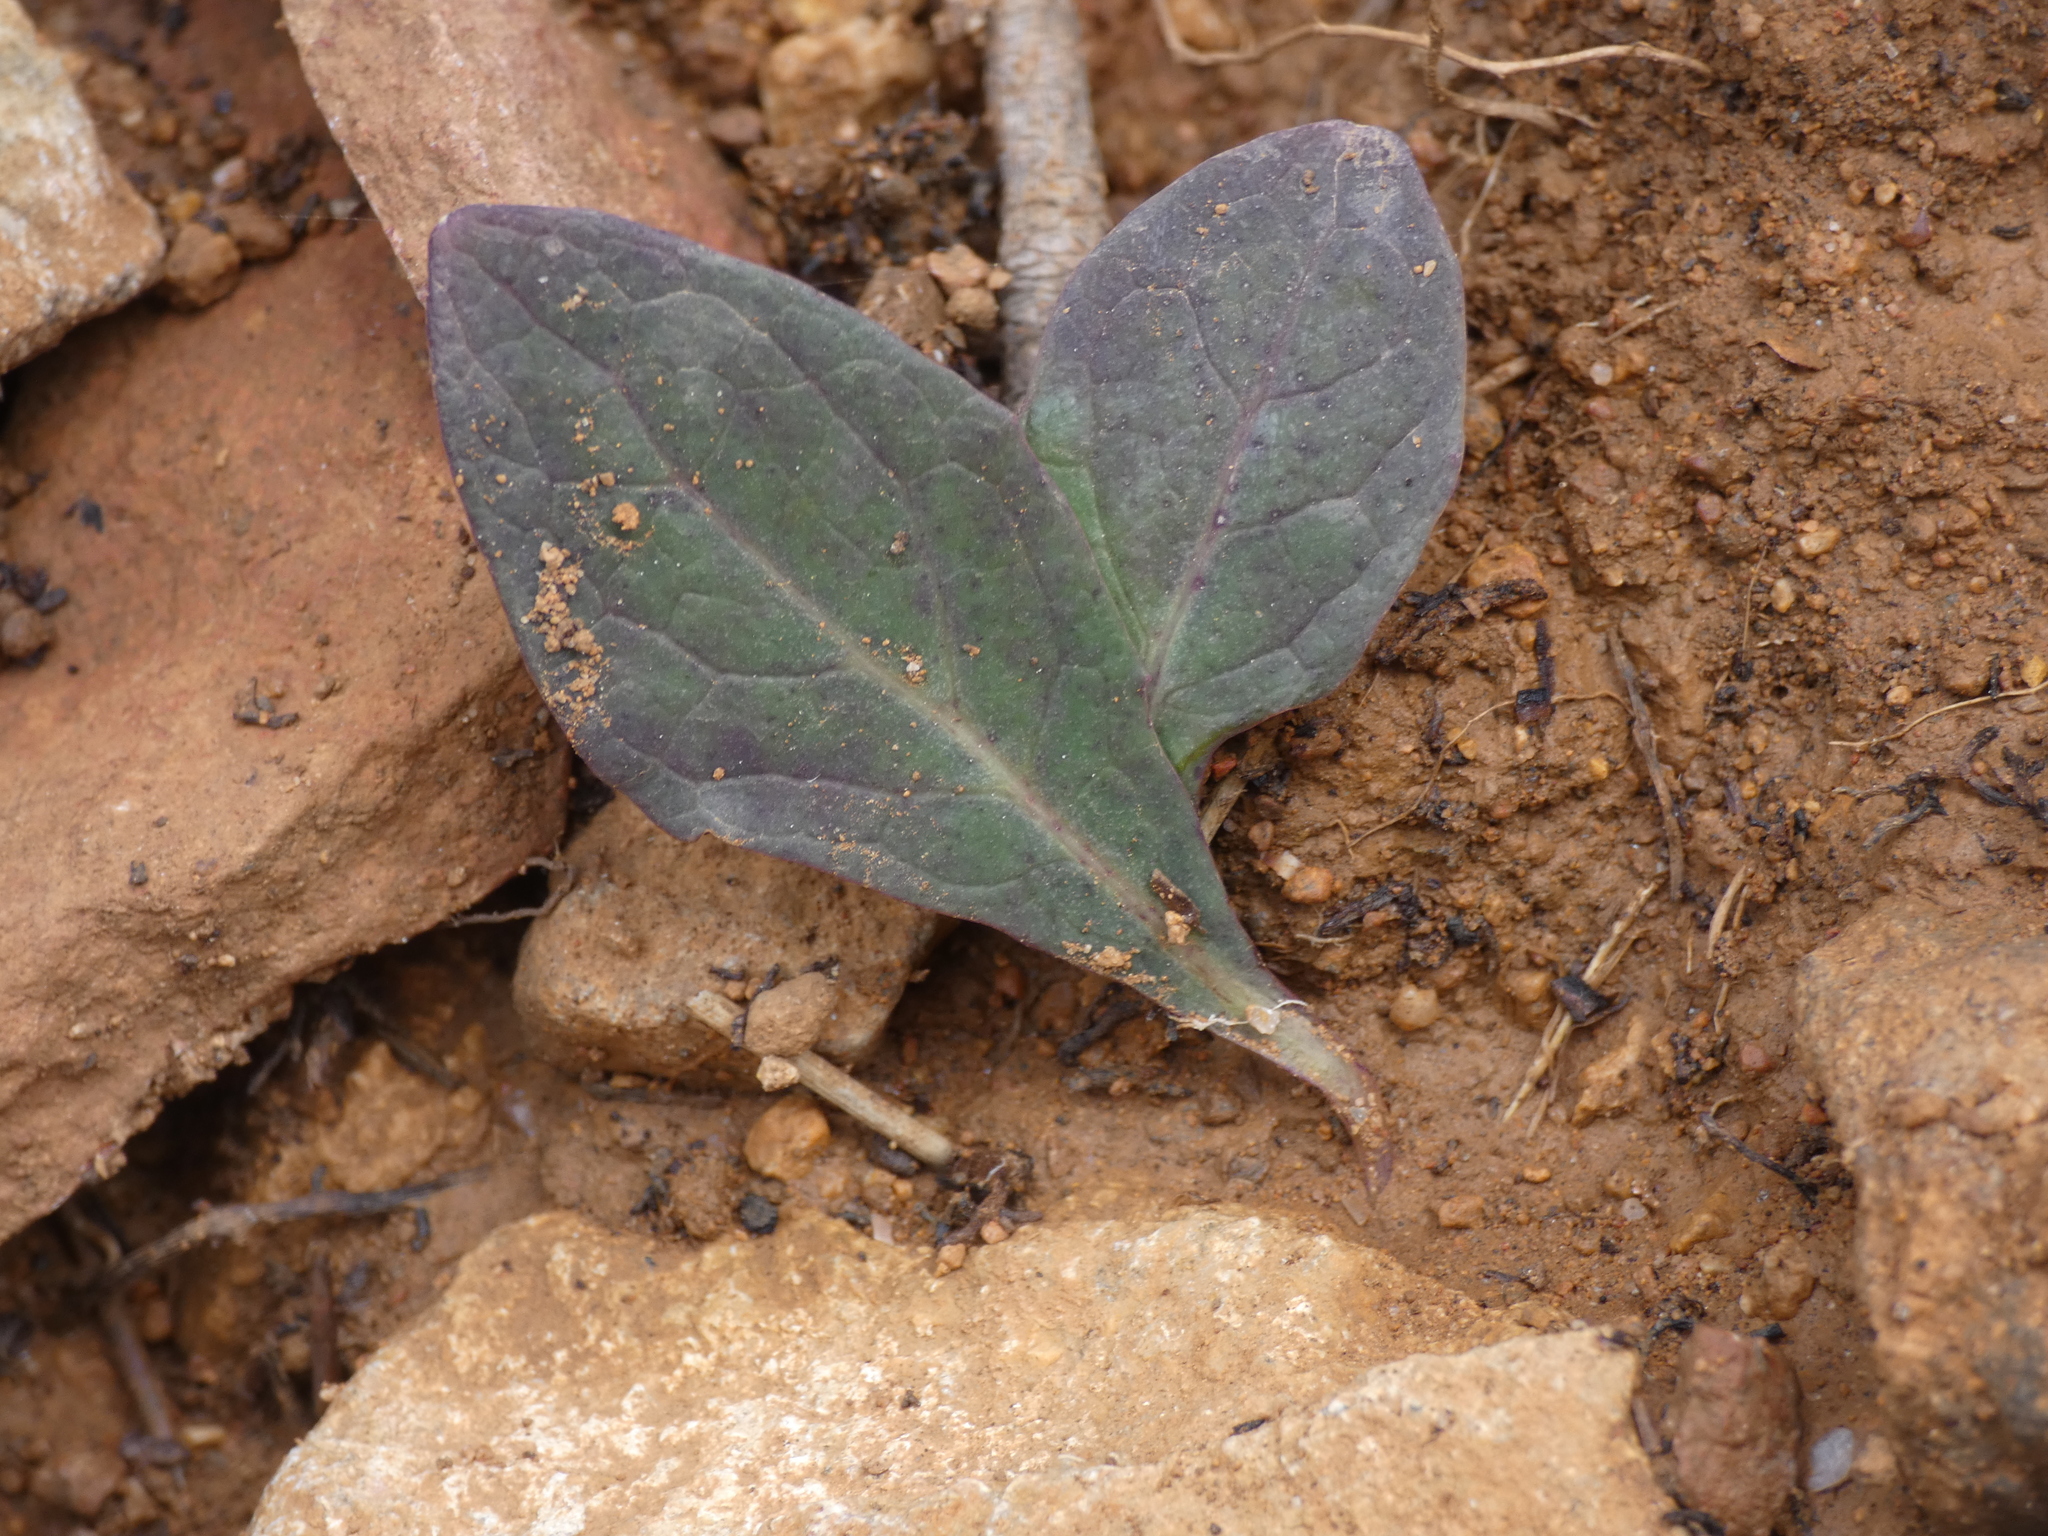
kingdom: Plantae
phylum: Tracheophyta
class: Magnoliopsida
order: Asterales
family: Asteraceae
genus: Aetheorhiza
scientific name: Aetheorhiza bulbosa
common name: Tuberous hawk's-beard
